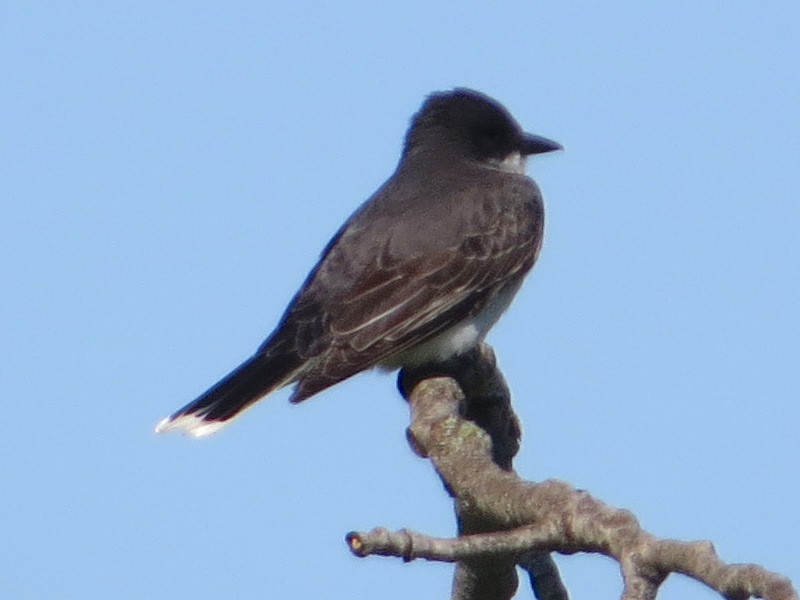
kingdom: Animalia
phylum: Chordata
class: Aves
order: Passeriformes
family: Tyrannidae
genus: Tyrannus
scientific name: Tyrannus tyrannus
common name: Eastern kingbird
